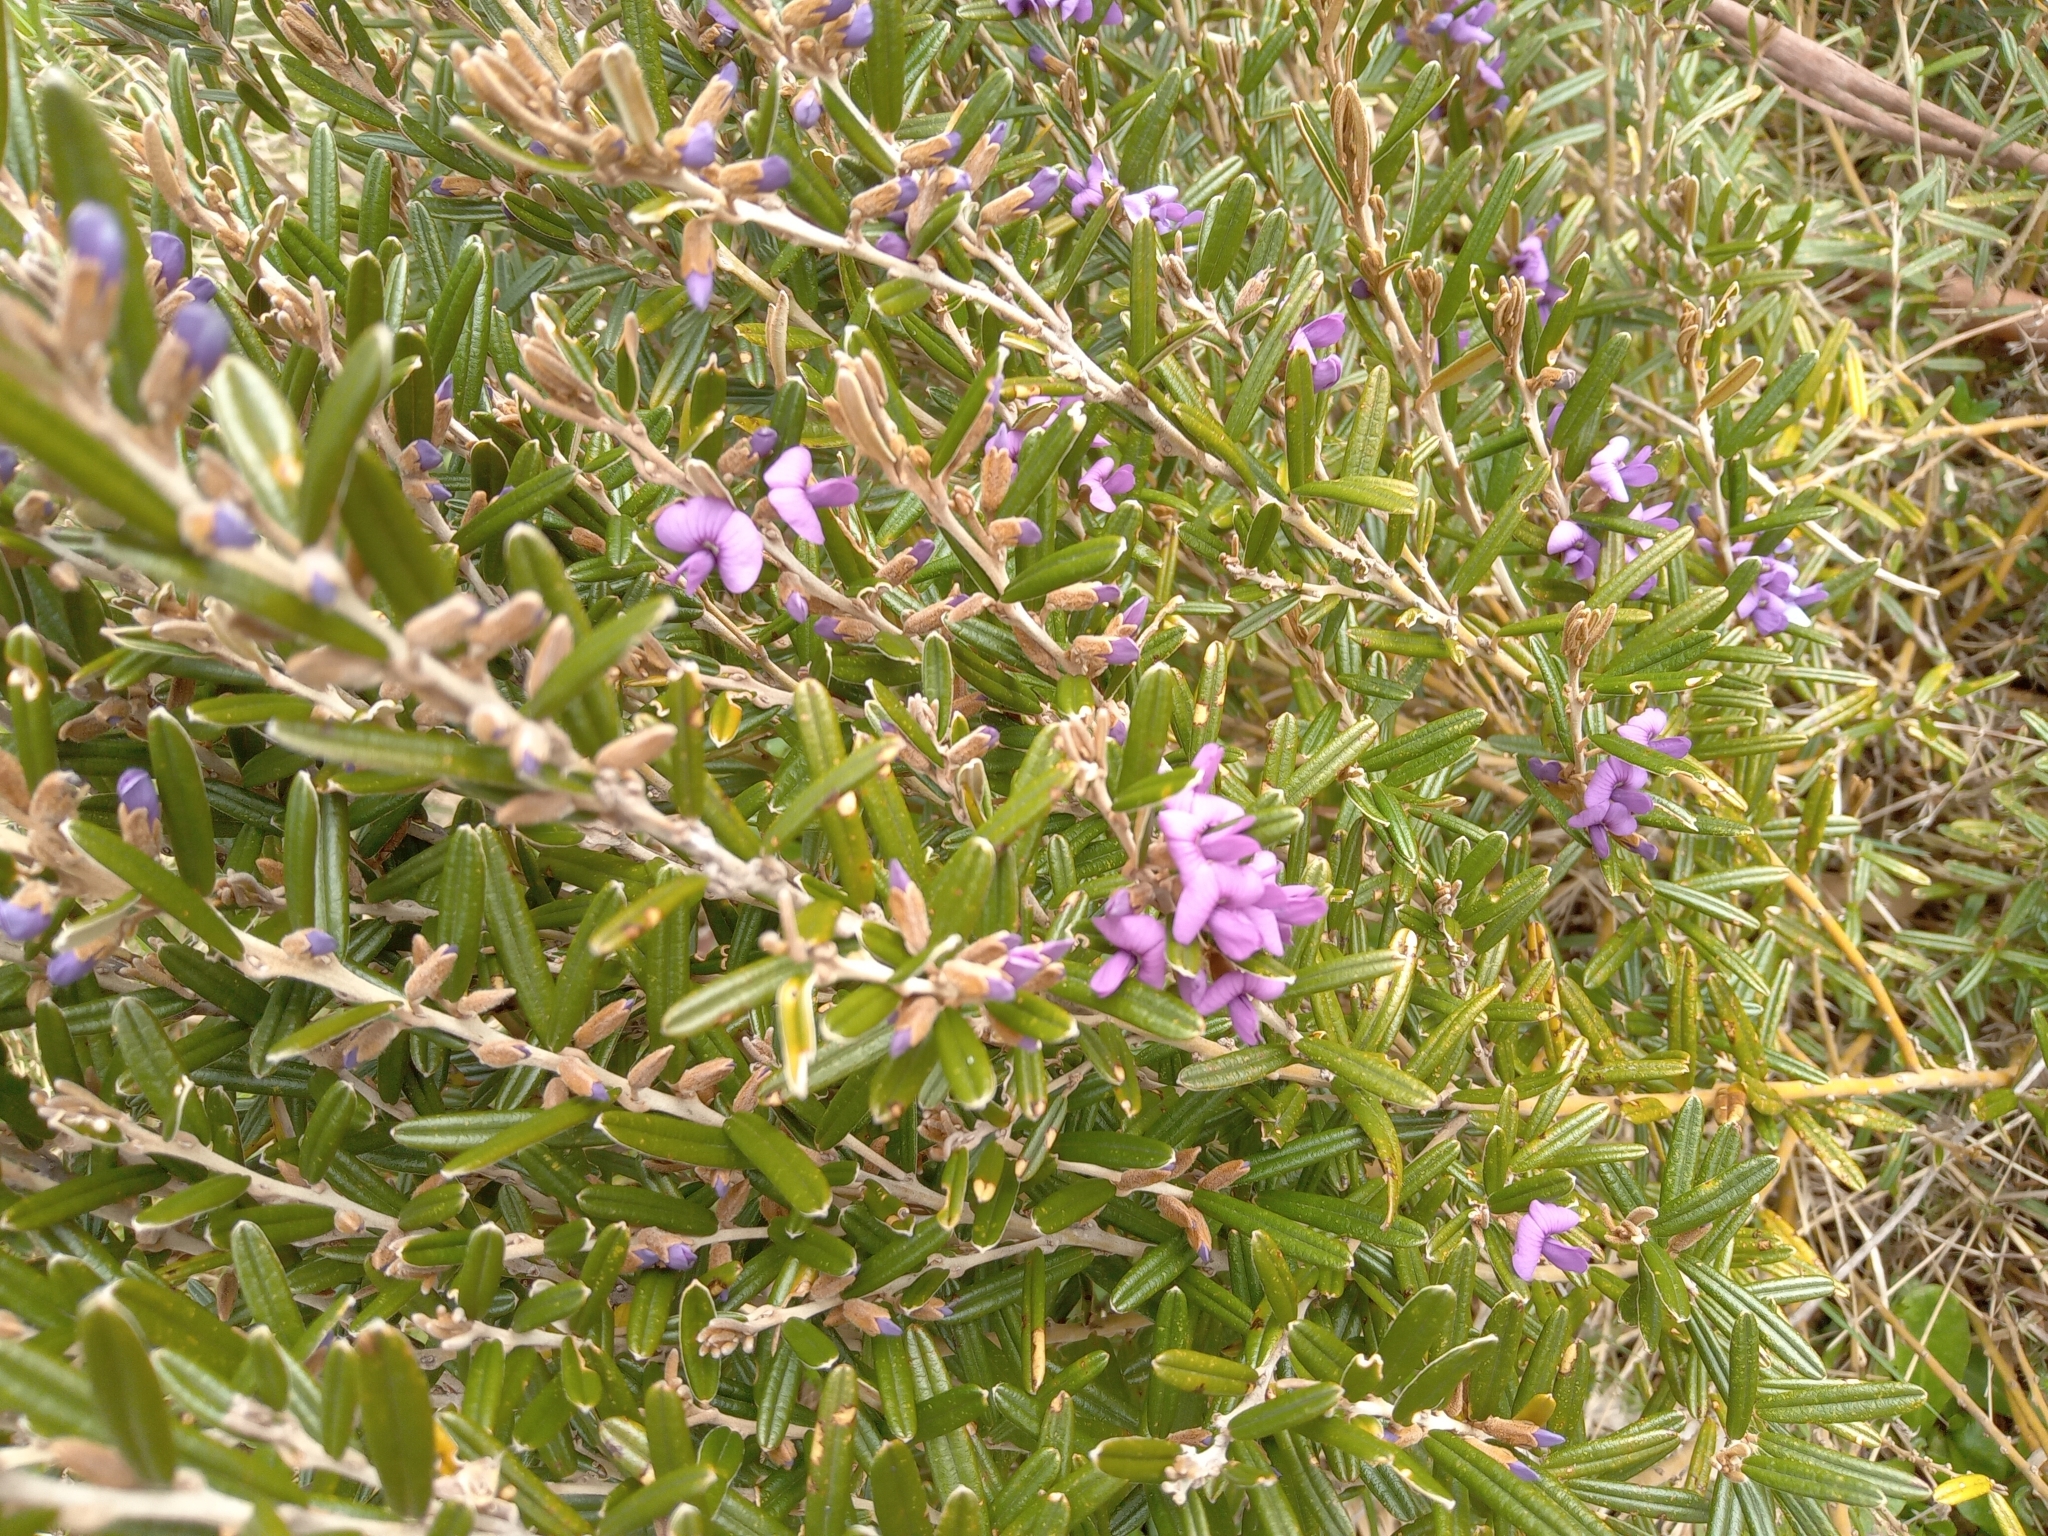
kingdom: Plantae
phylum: Tracheophyta
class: Magnoliopsida
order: Fabales
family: Fabaceae
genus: Hovea
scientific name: Hovea montana
